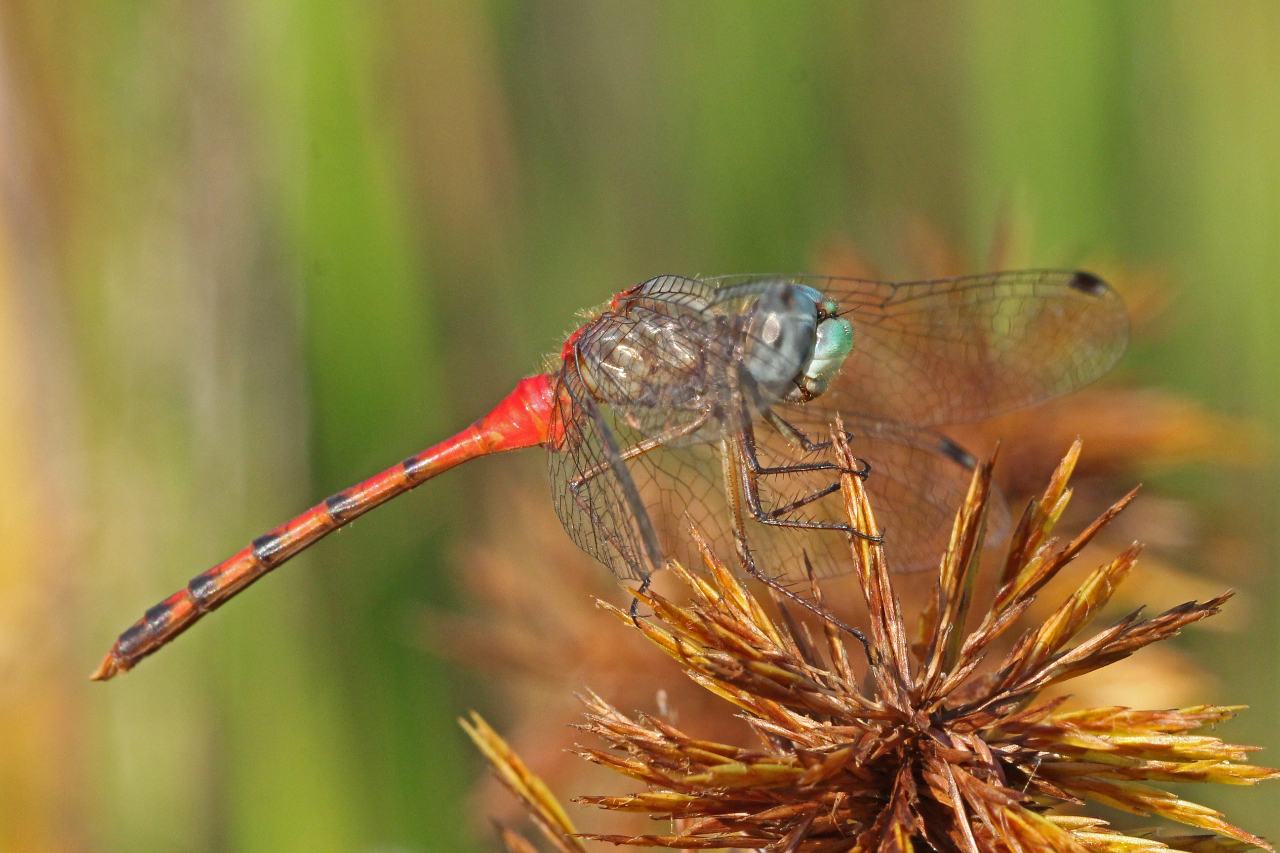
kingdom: Animalia
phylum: Arthropoda
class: Insecta
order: Odonata
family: Libellulidae
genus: Sympetrum
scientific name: Sympetrum ambiguum
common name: Blue-faced meadowhawk
